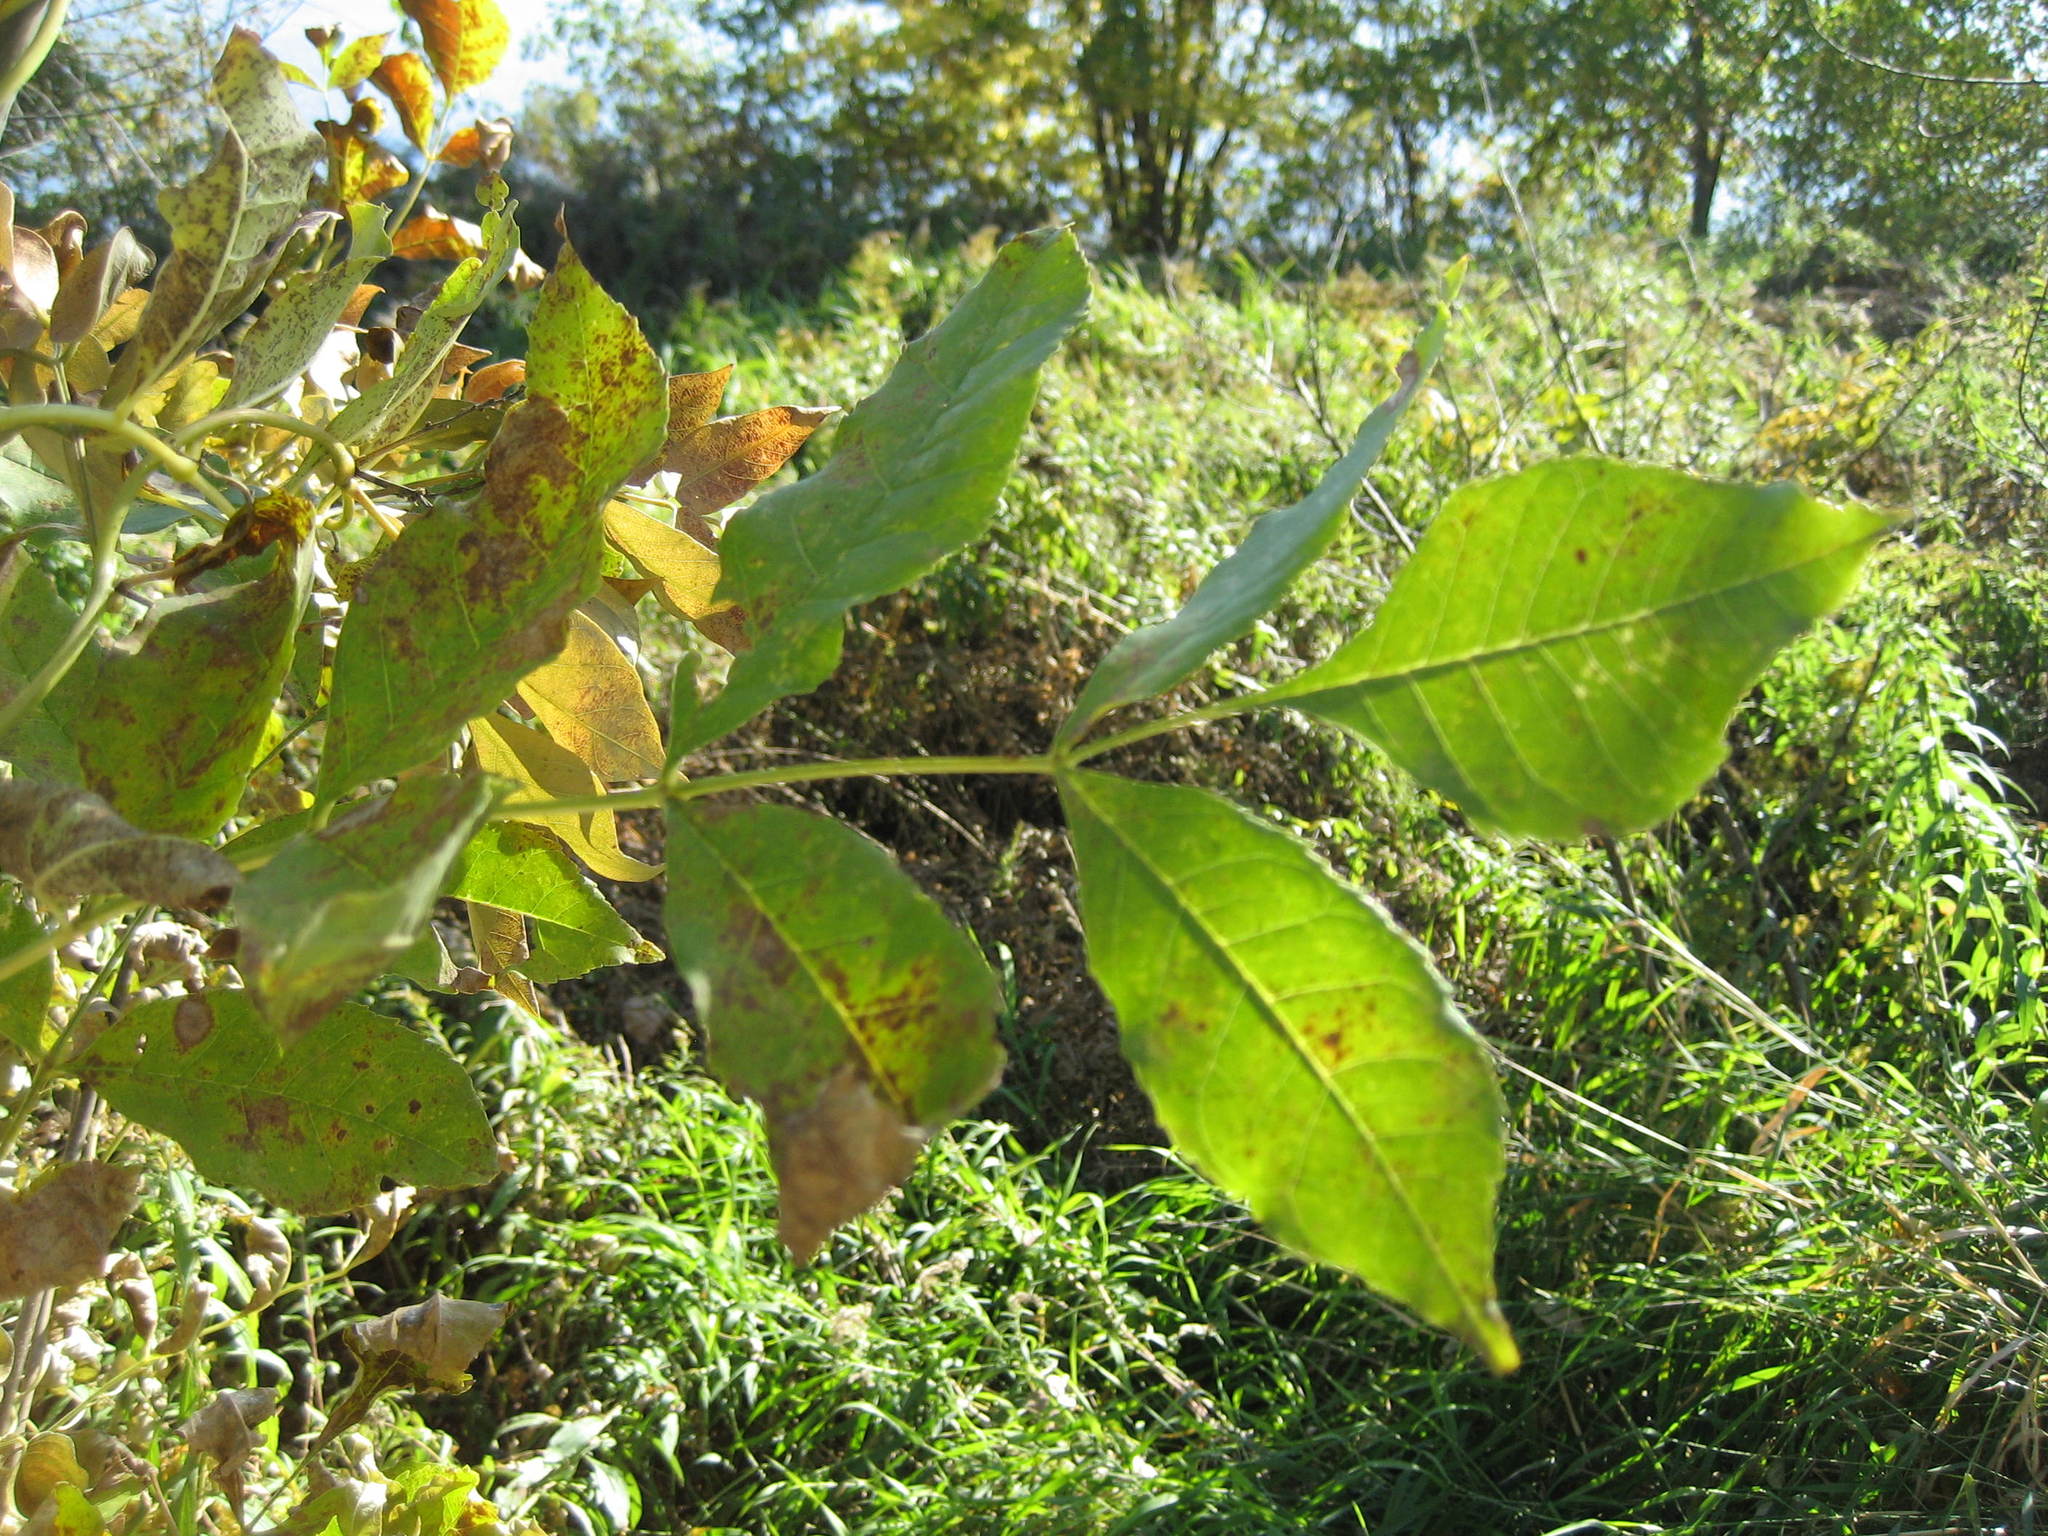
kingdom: Plantae
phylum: Tracheophyta
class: Magnoliopsida
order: Lamiales
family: Oleaceae
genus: Fraxinus
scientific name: Fraxinus pennsylvanica
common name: Green ash
